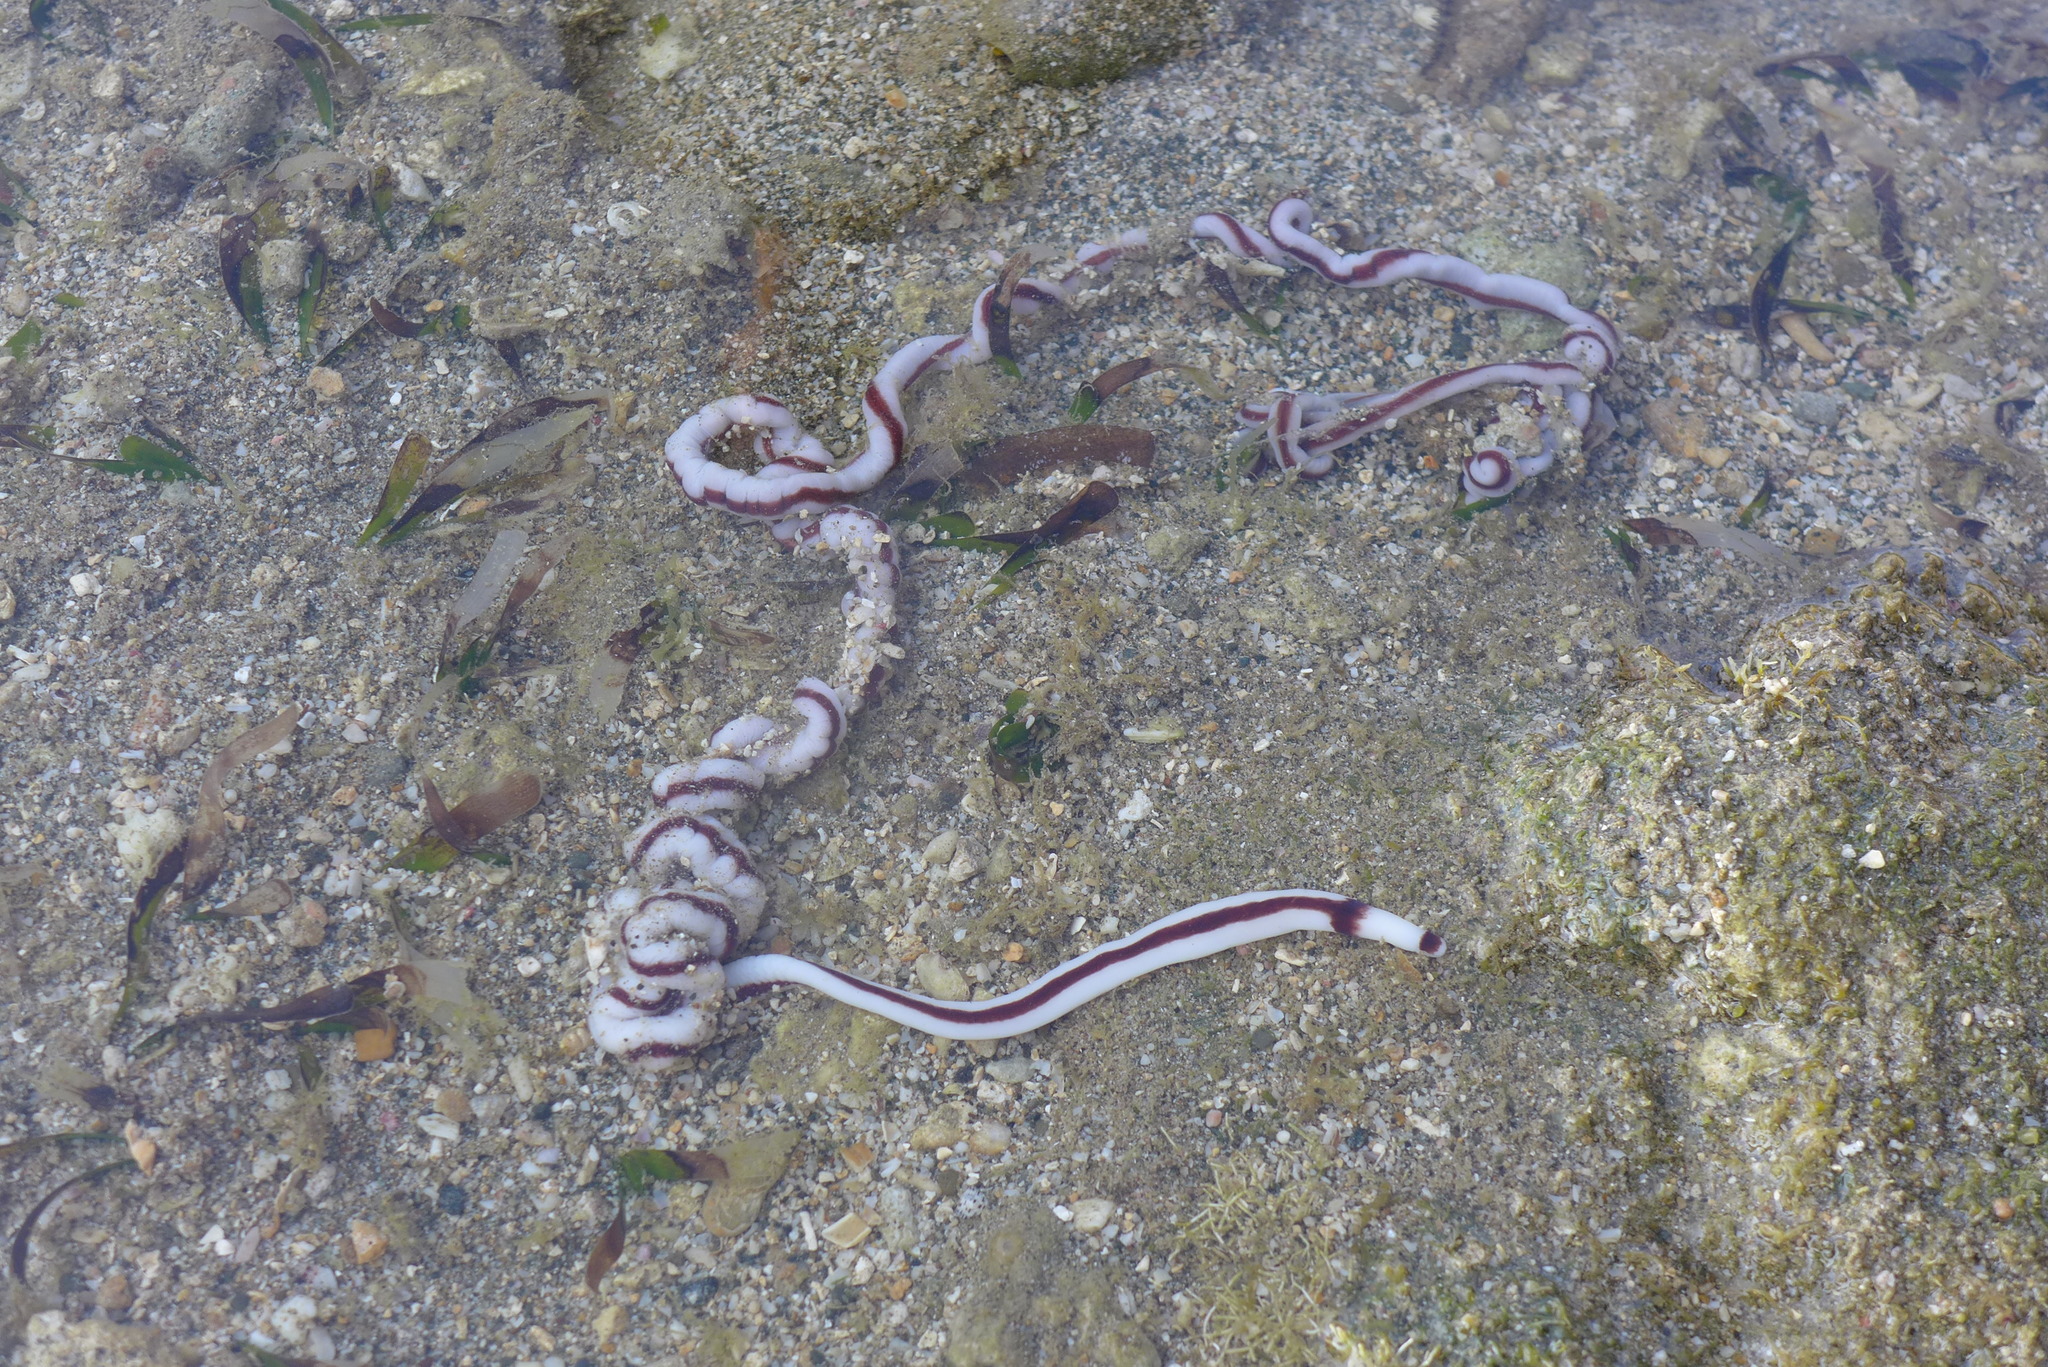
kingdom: Animalia
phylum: Nemertea
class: Pilidiophora
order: Heteronemertea
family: Valenciniidae
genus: Baseodiscus
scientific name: Baseodiscus hemprichii
